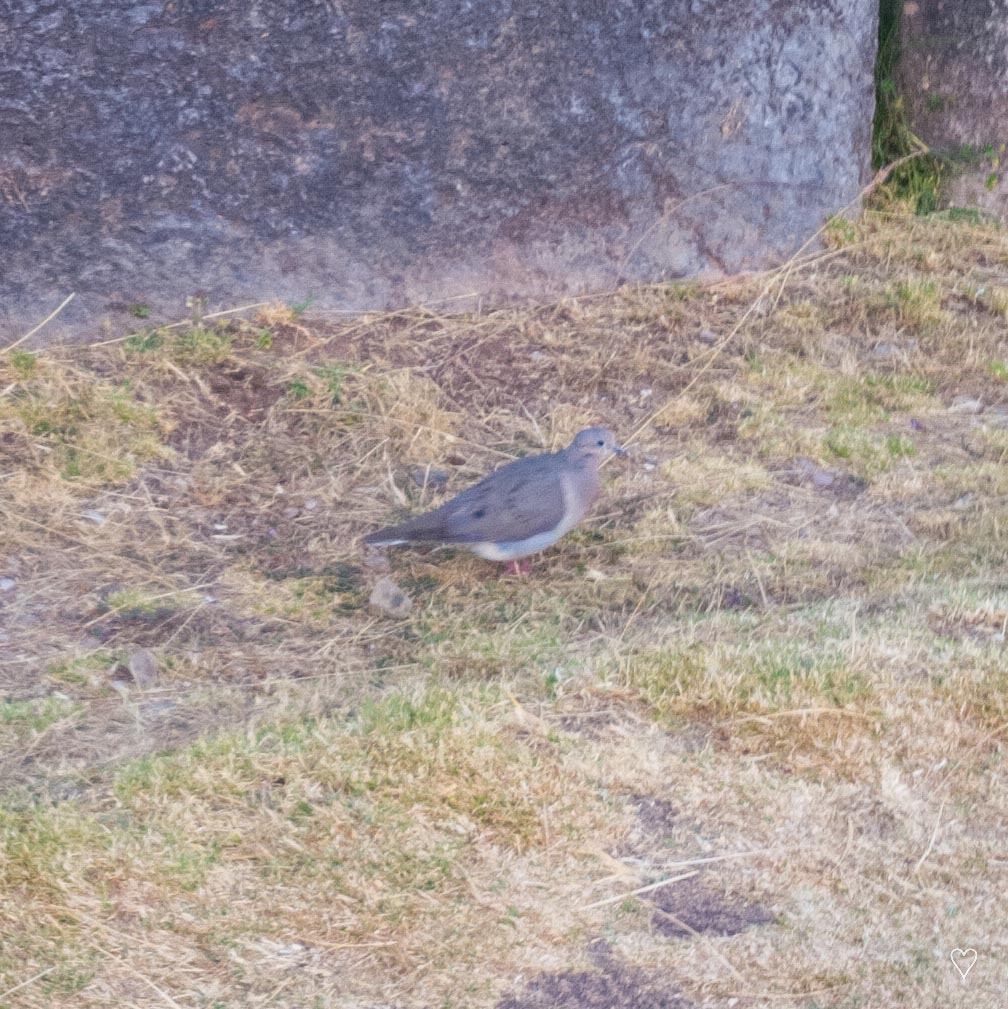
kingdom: Animalia
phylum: Chordata
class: Aves
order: Columbiformes
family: Columbidae
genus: Zenaida
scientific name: Zenaida auriculata
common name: Eared dove
